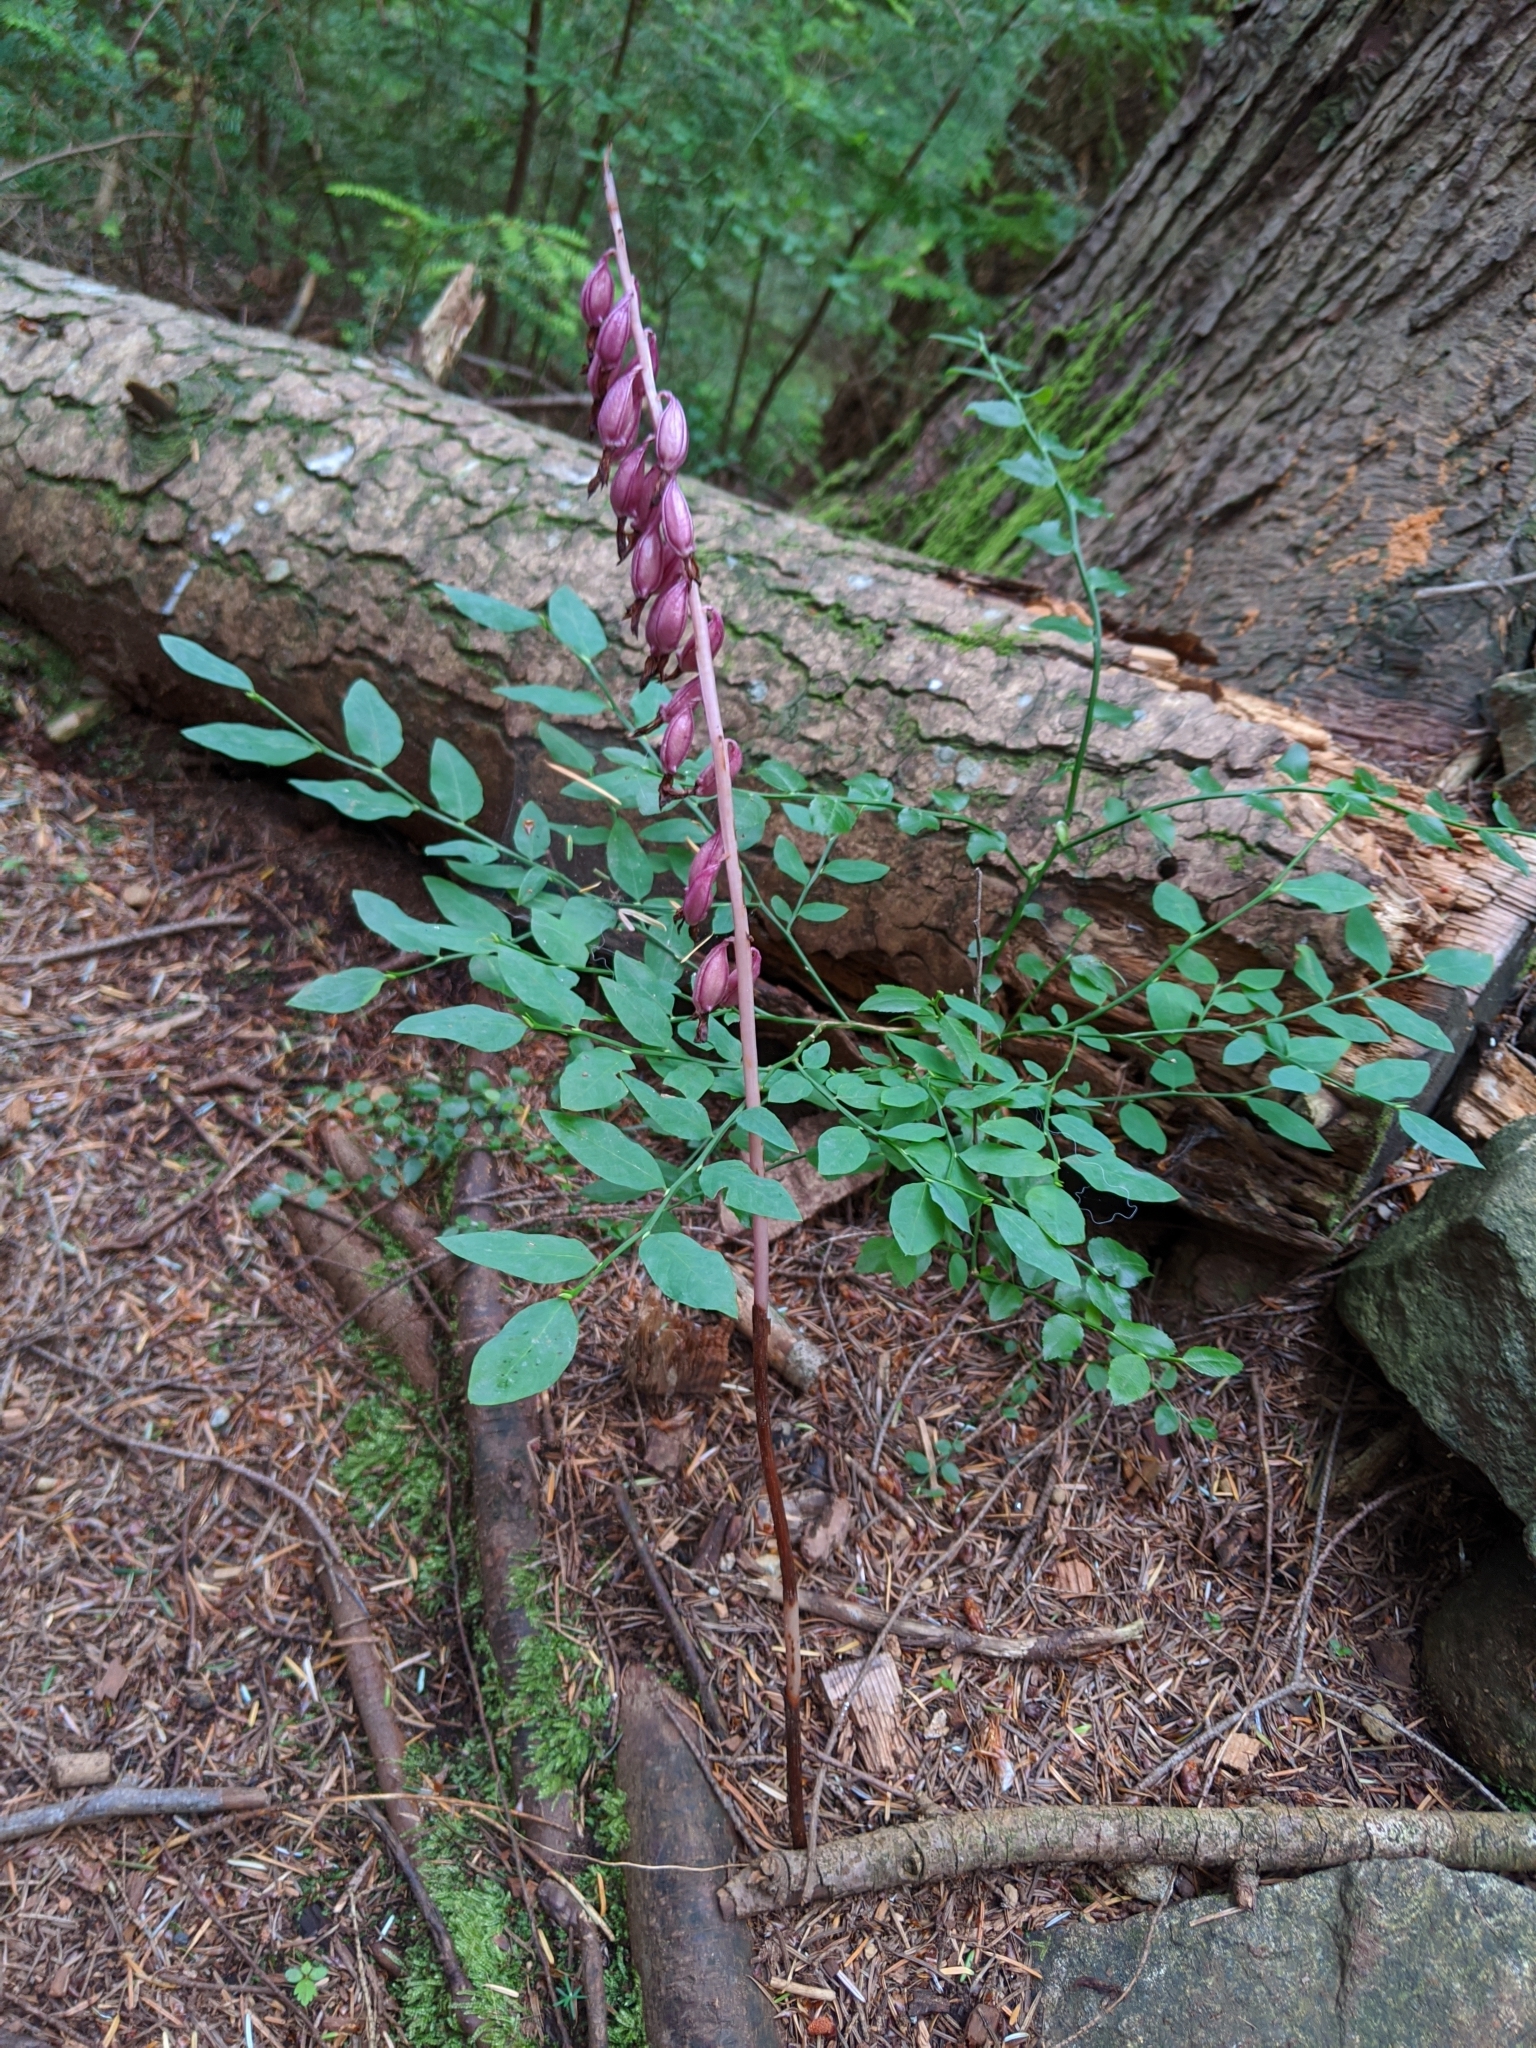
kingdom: Plantae
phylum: Tracheophyta
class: Liliopsida
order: Asparagales
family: Orchidaceae
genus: Corallorhiza
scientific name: Corallorhiza mertensiana
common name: Pacific coralroot
